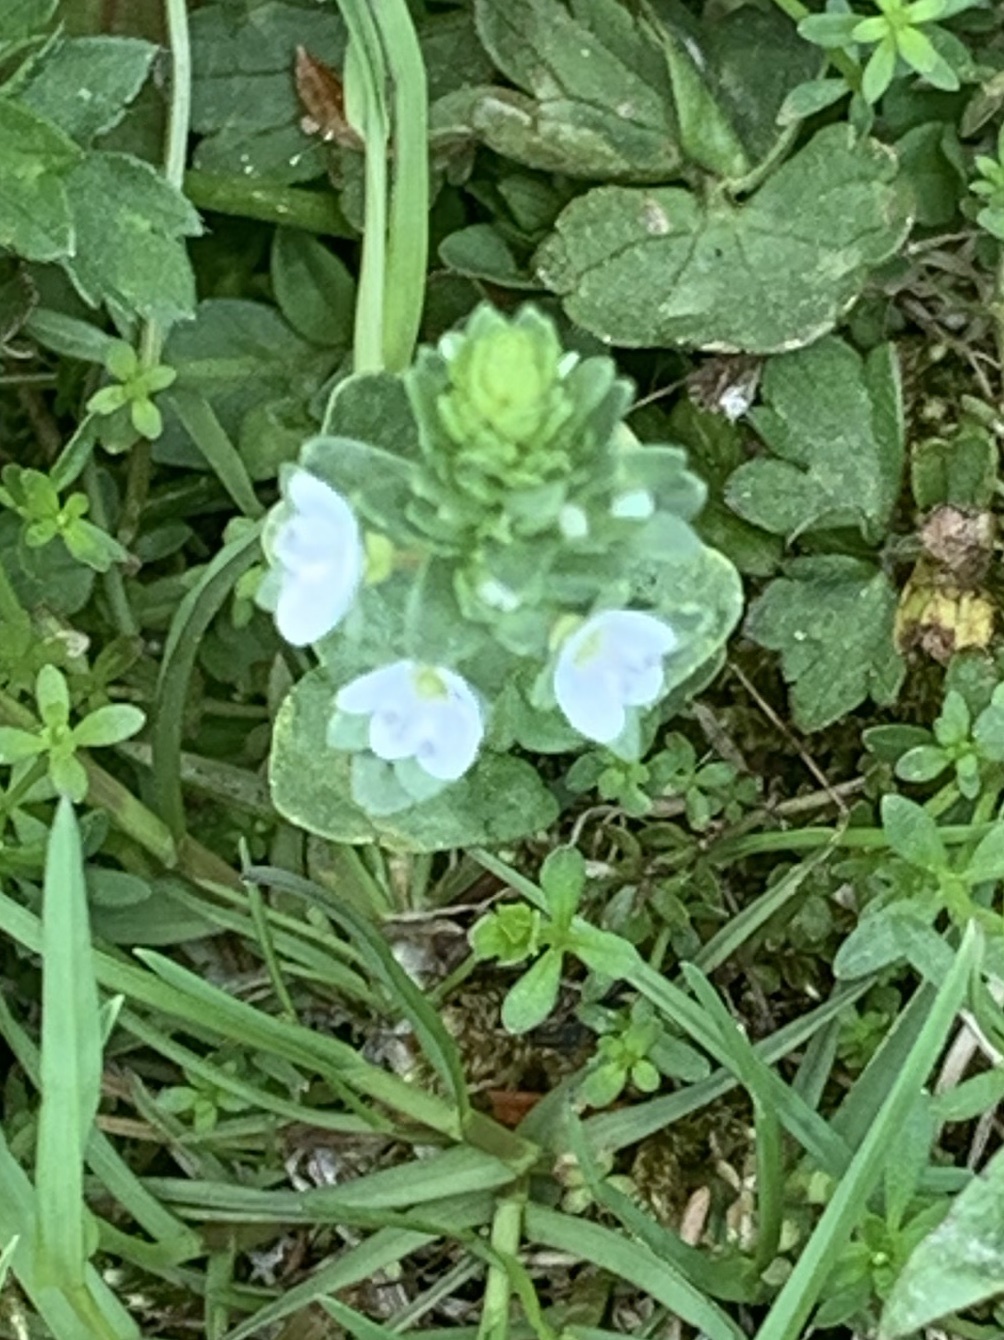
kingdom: Plantae
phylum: Tracheophyta
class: Magnoliopsida
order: Lamiales
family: Plantaginaceae
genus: Veronica
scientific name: Veronica serpyllifolia
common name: Thyme-leaved speedwell
